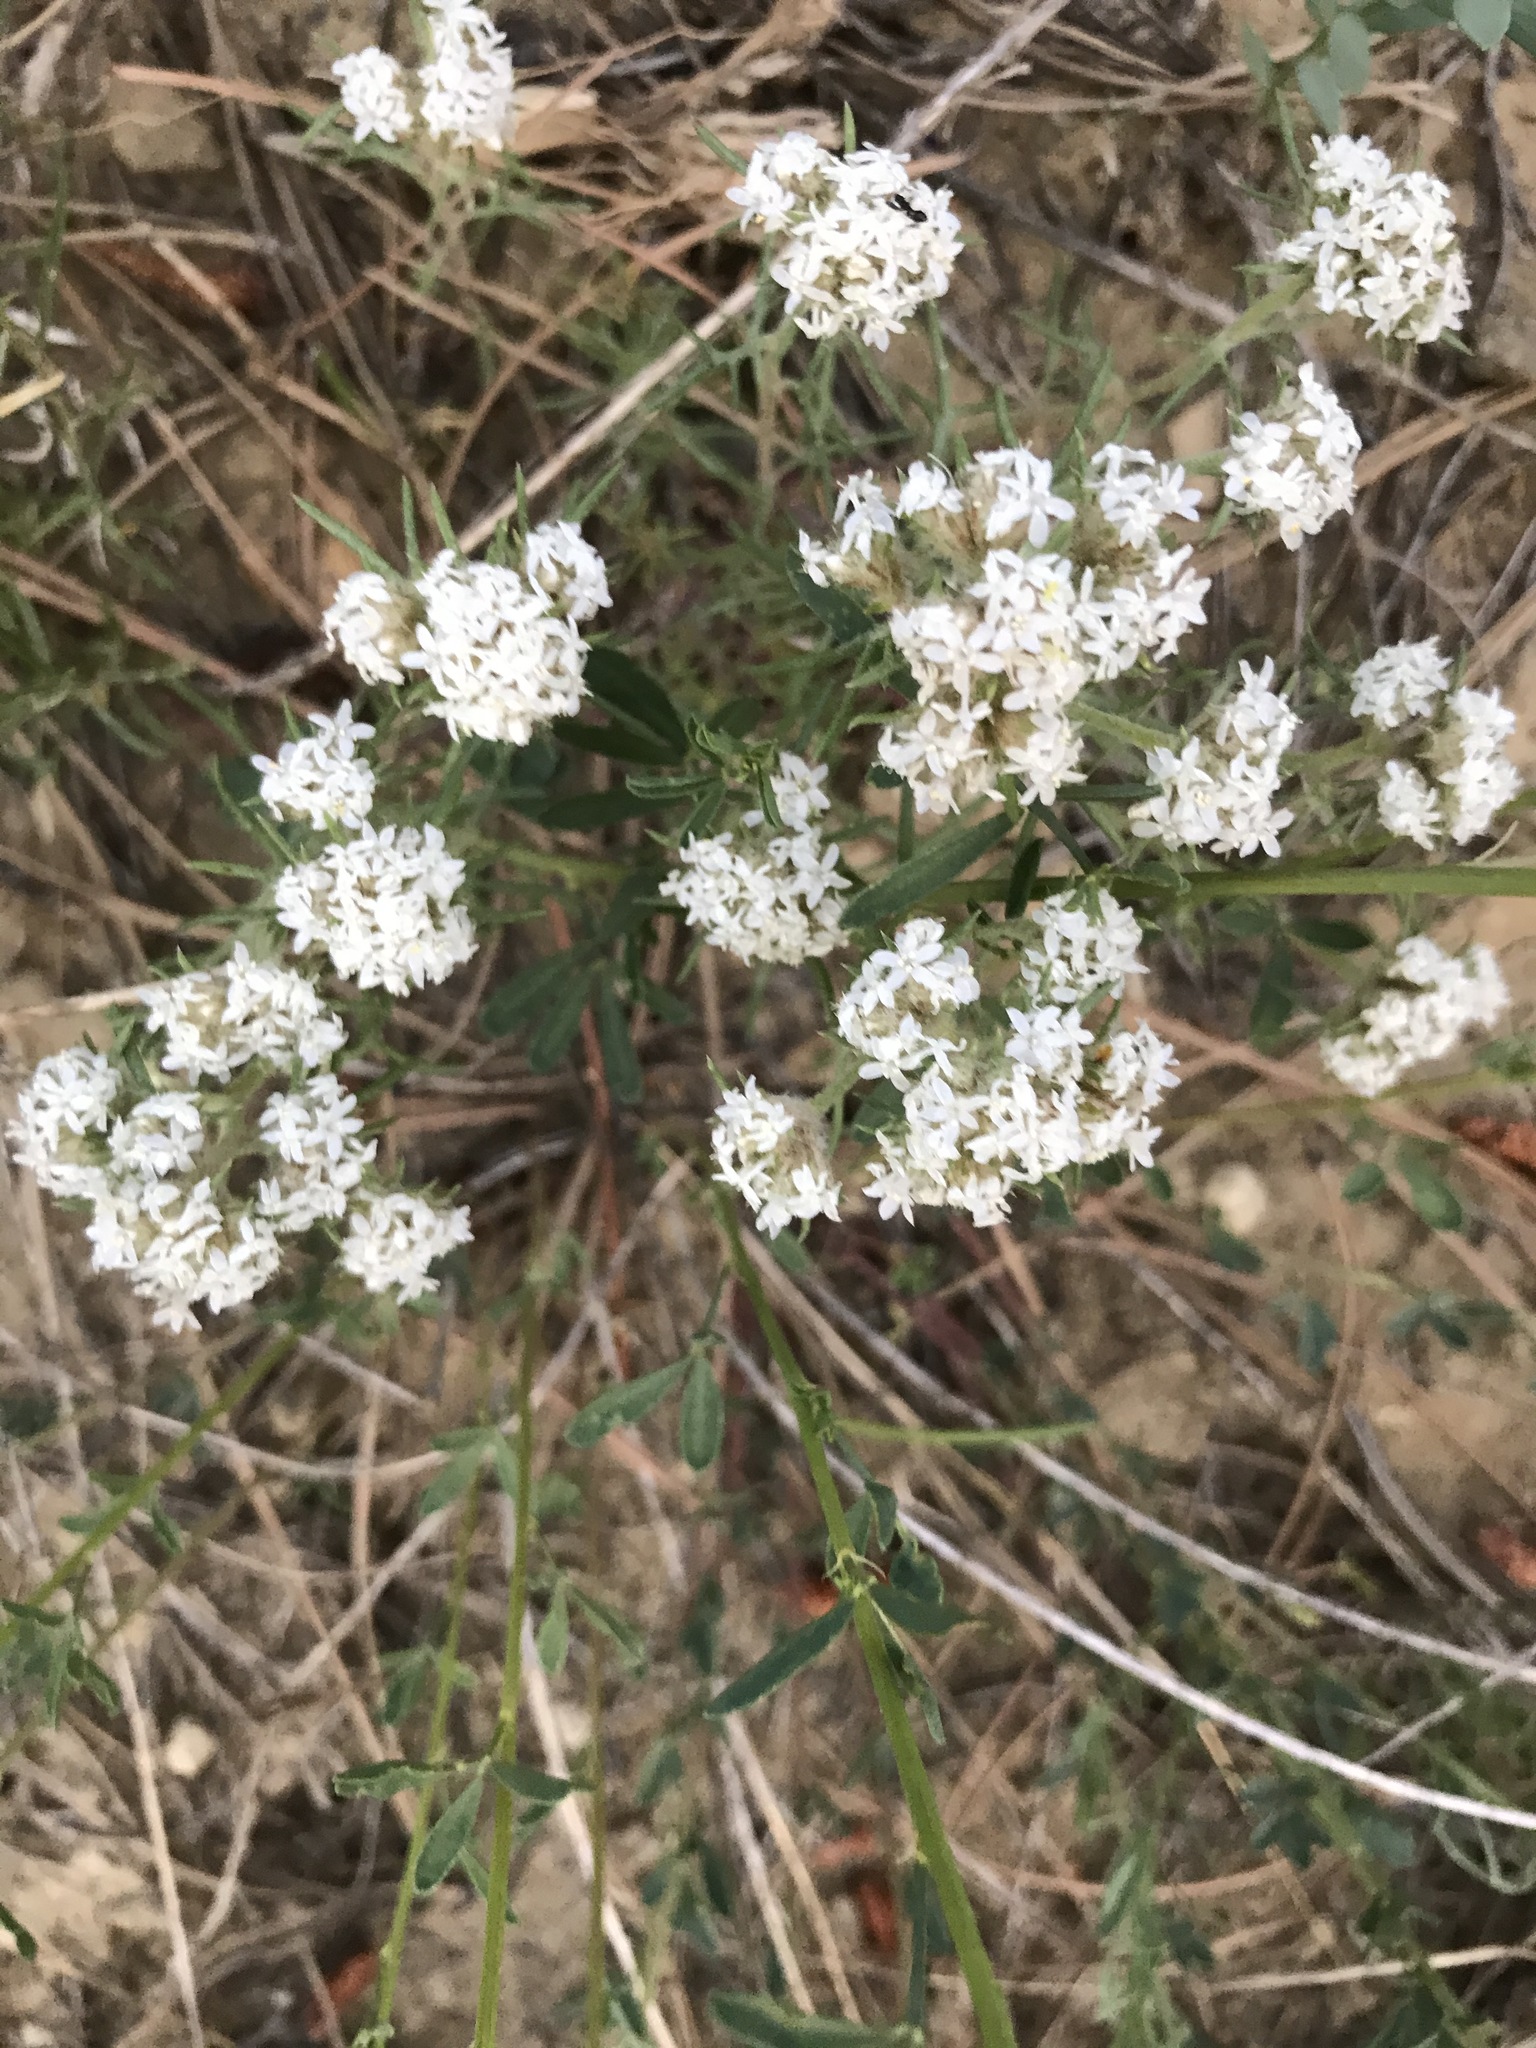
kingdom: Plantae
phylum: Tracheophyta
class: Magnoliopsida
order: Ericales
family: Polemoniaceae
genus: Ipomopsis
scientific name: Ipomopsis congesta
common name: Ball-head gilia
